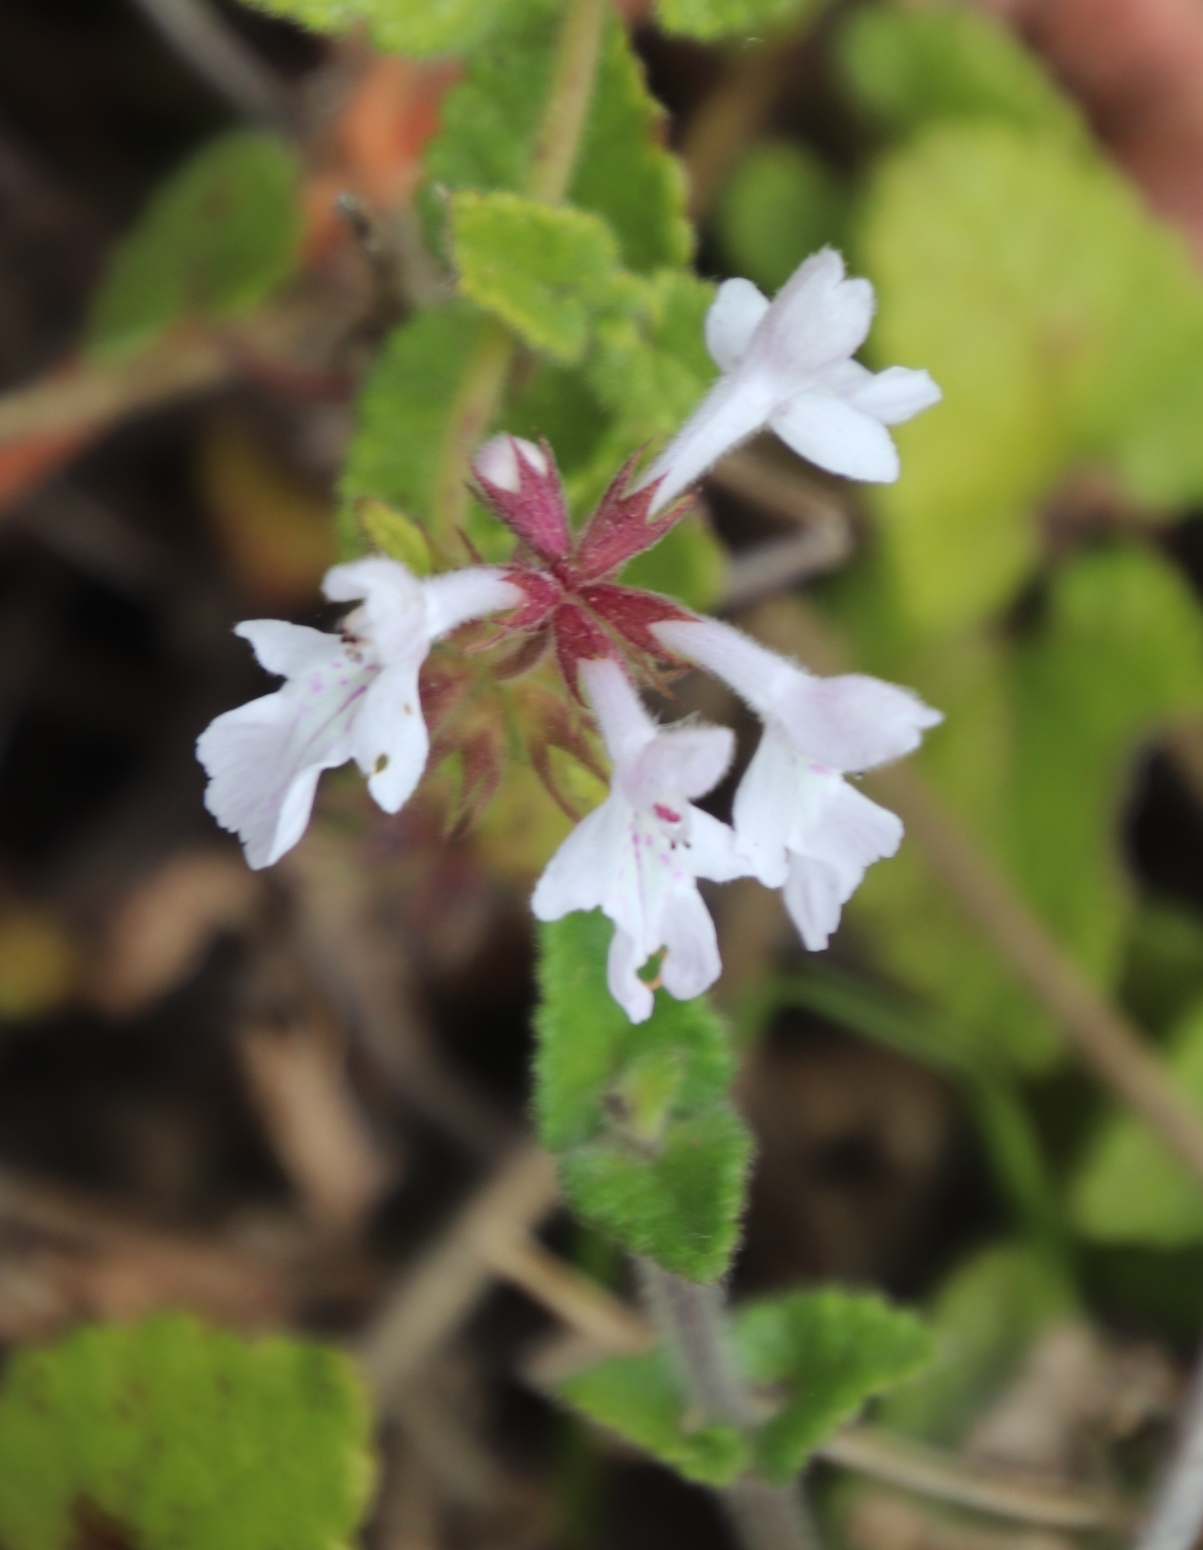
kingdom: Plantae
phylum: Tracheophyta
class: Magnoliopsida
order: Lamiales
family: Lamiaceae
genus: Stachys
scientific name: Stachys aethiopica
